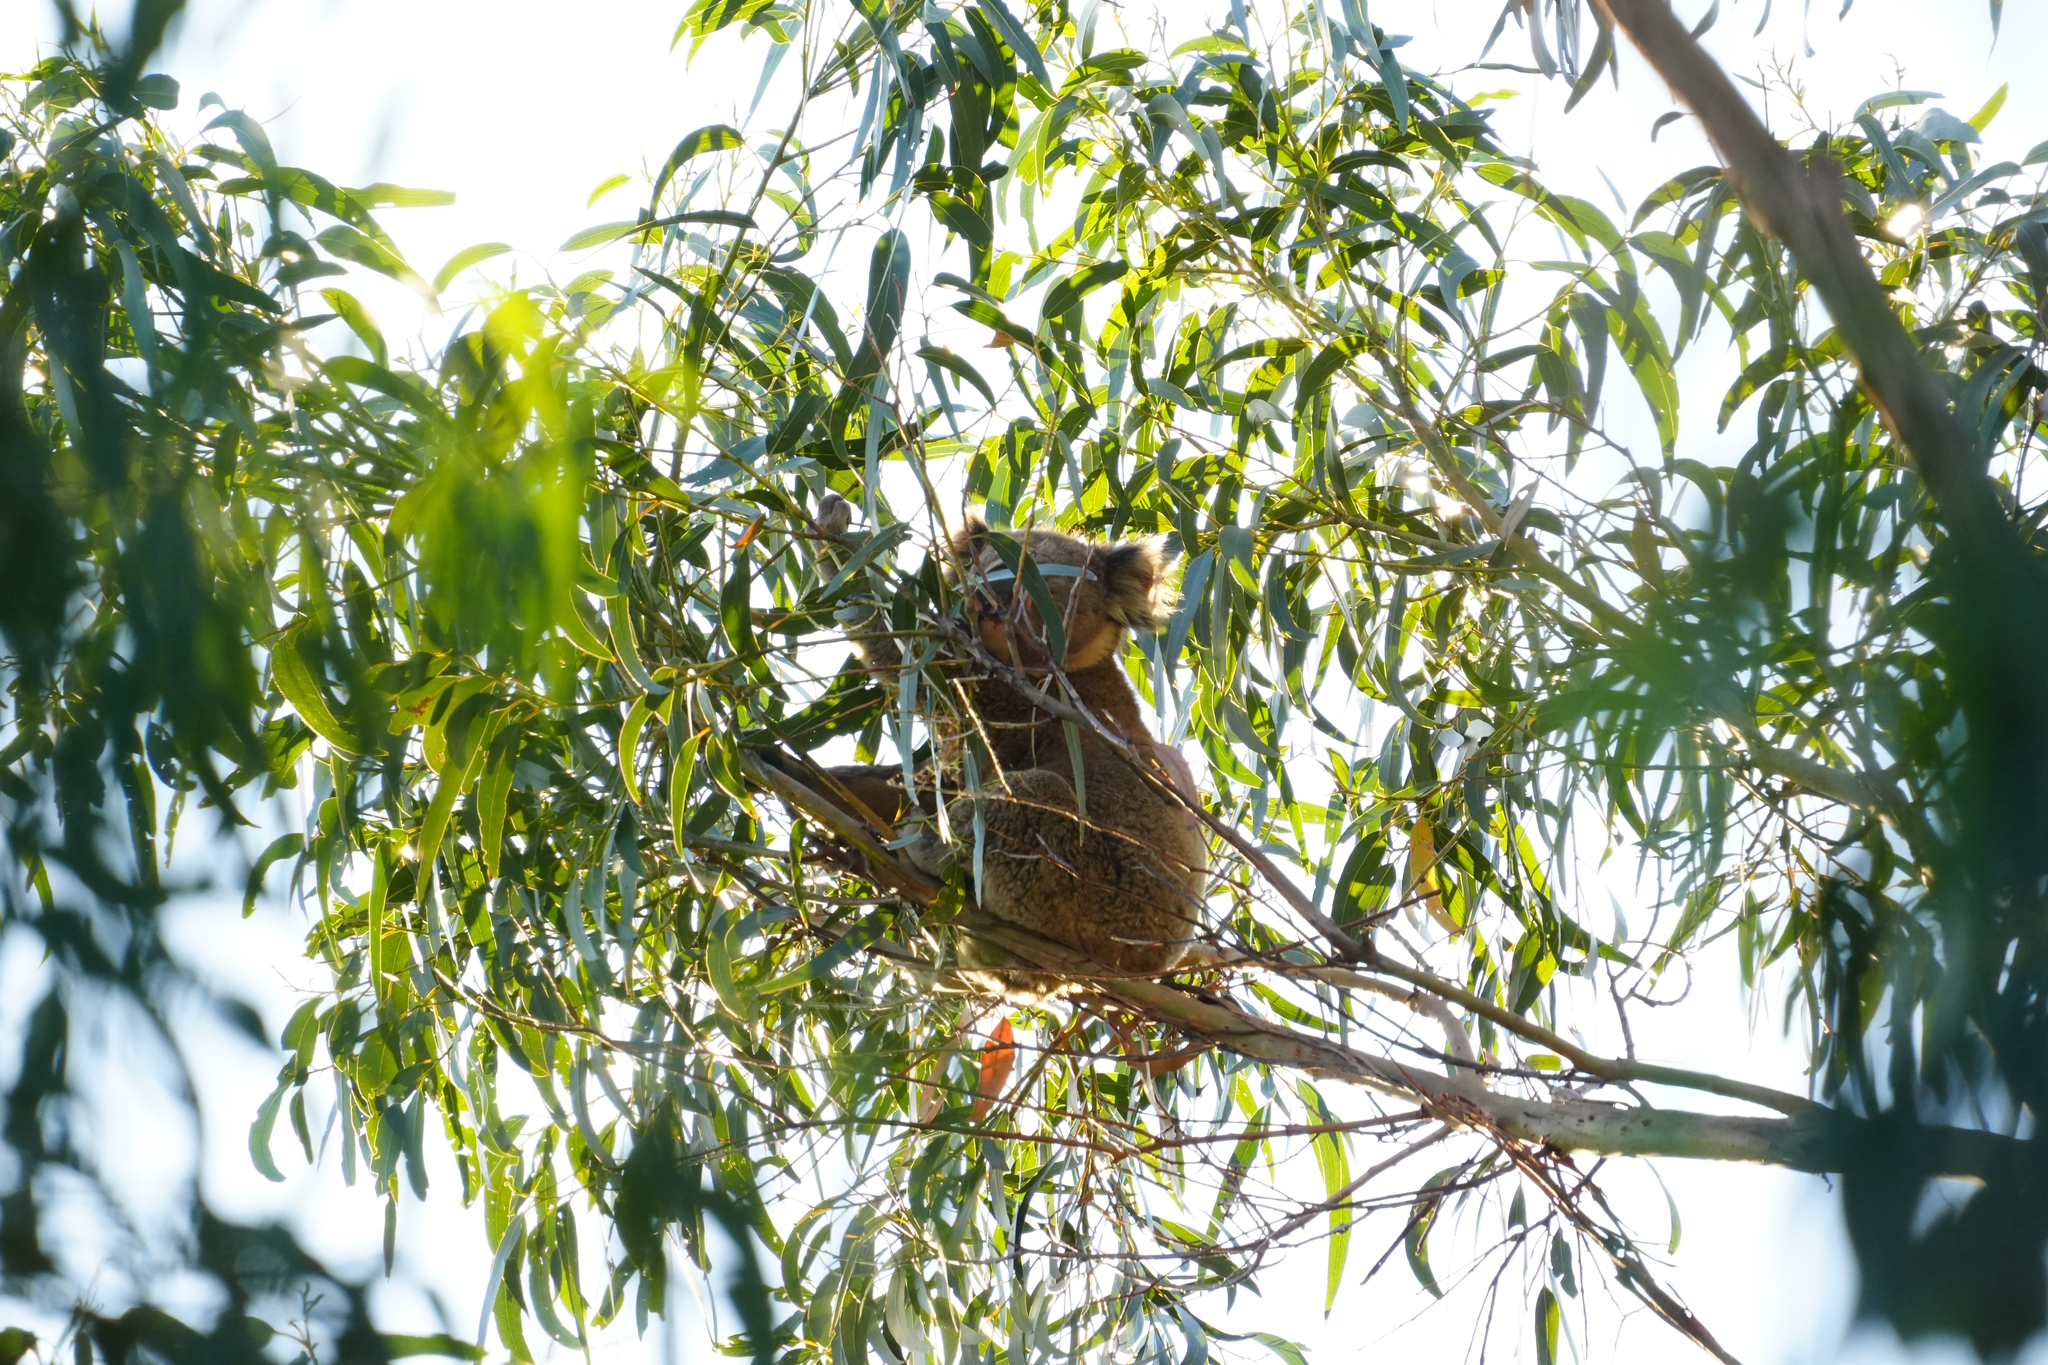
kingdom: Animalia
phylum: Chordata
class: Mammalia
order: Diprotodontia
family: Phascolarctidae
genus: Phascolarctos
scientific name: Phascolarctos cinereus
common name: Koala
